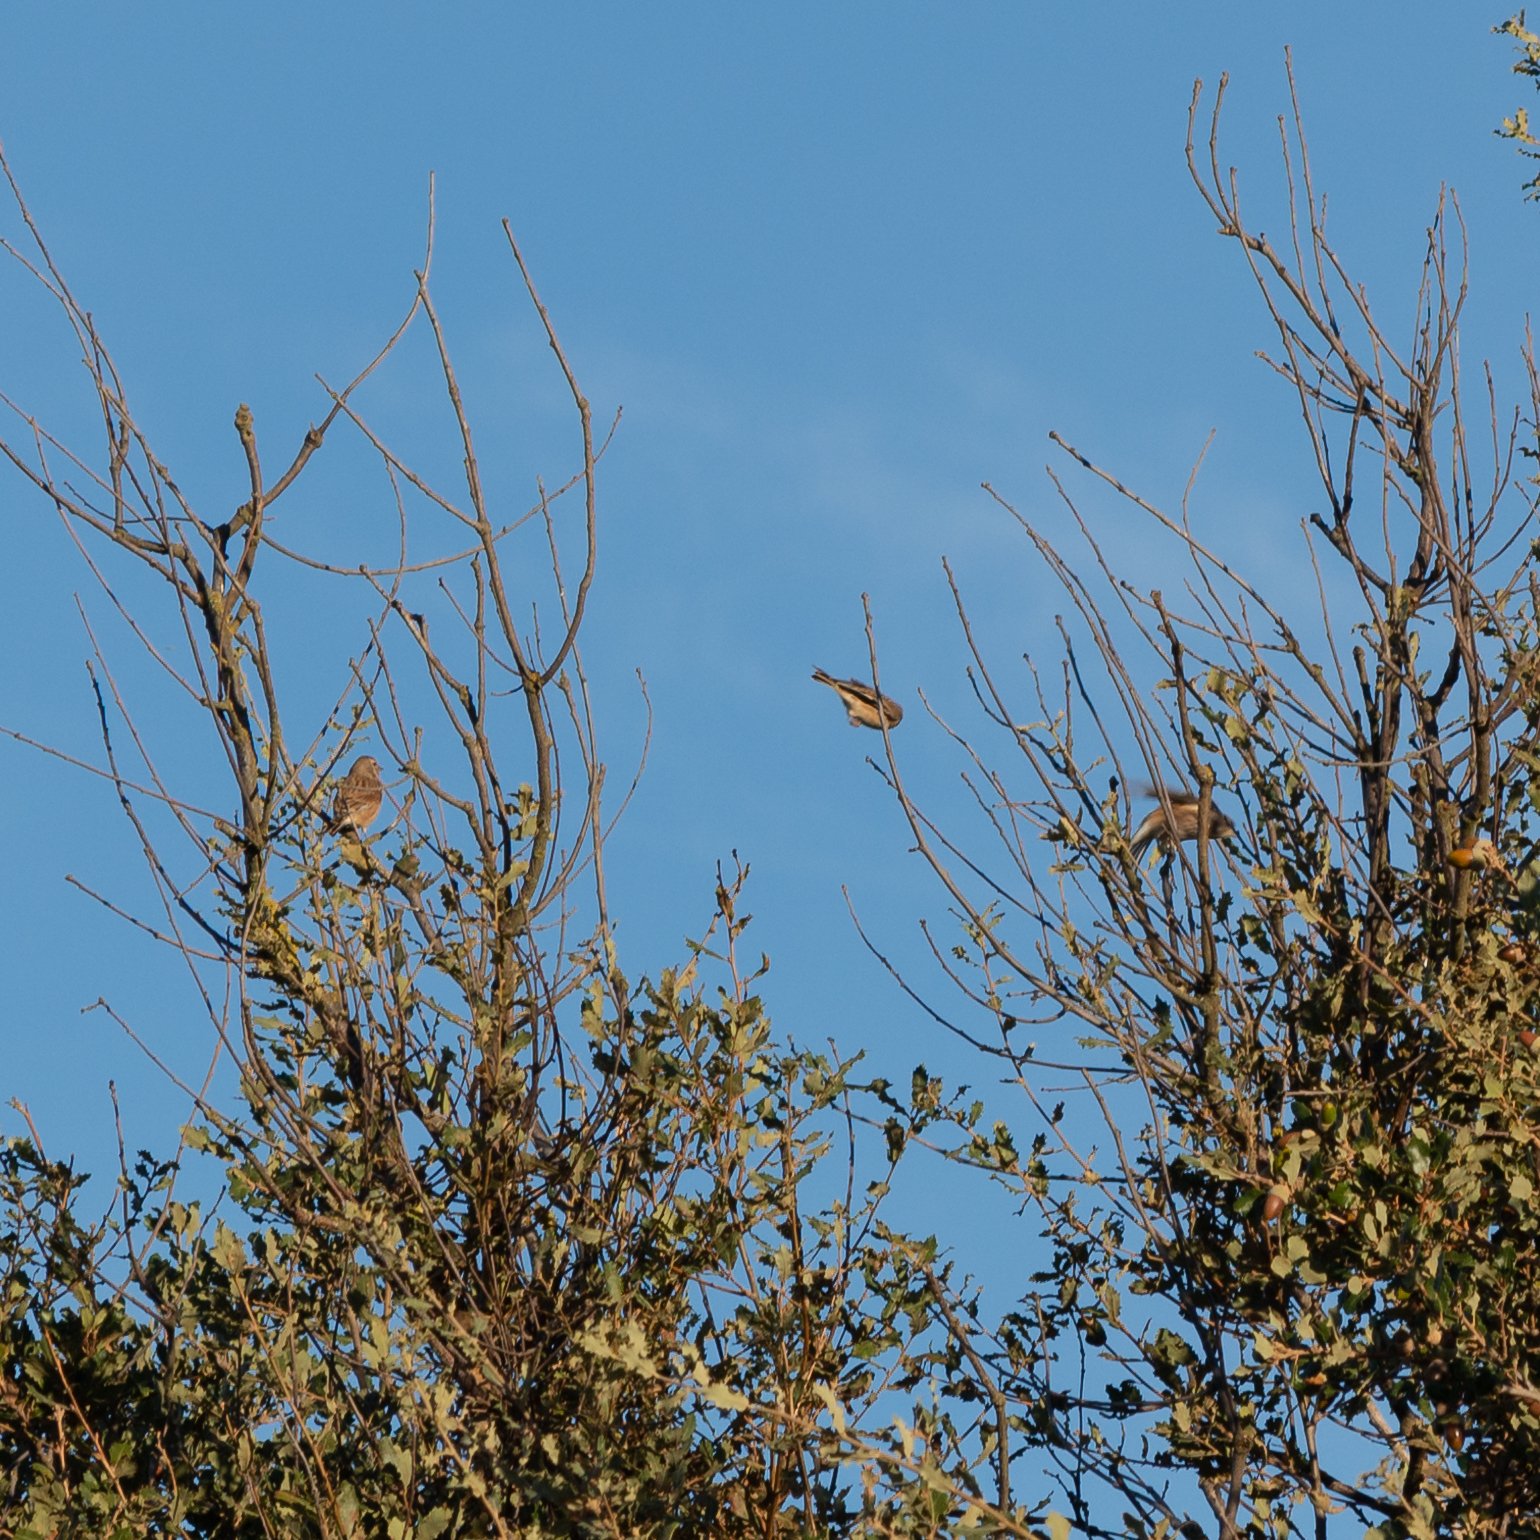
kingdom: Animalia
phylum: Chordata
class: Aves
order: Passeriformes
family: Fringillidae
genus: Linaria
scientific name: Linaria cannabina
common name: Common linnet
